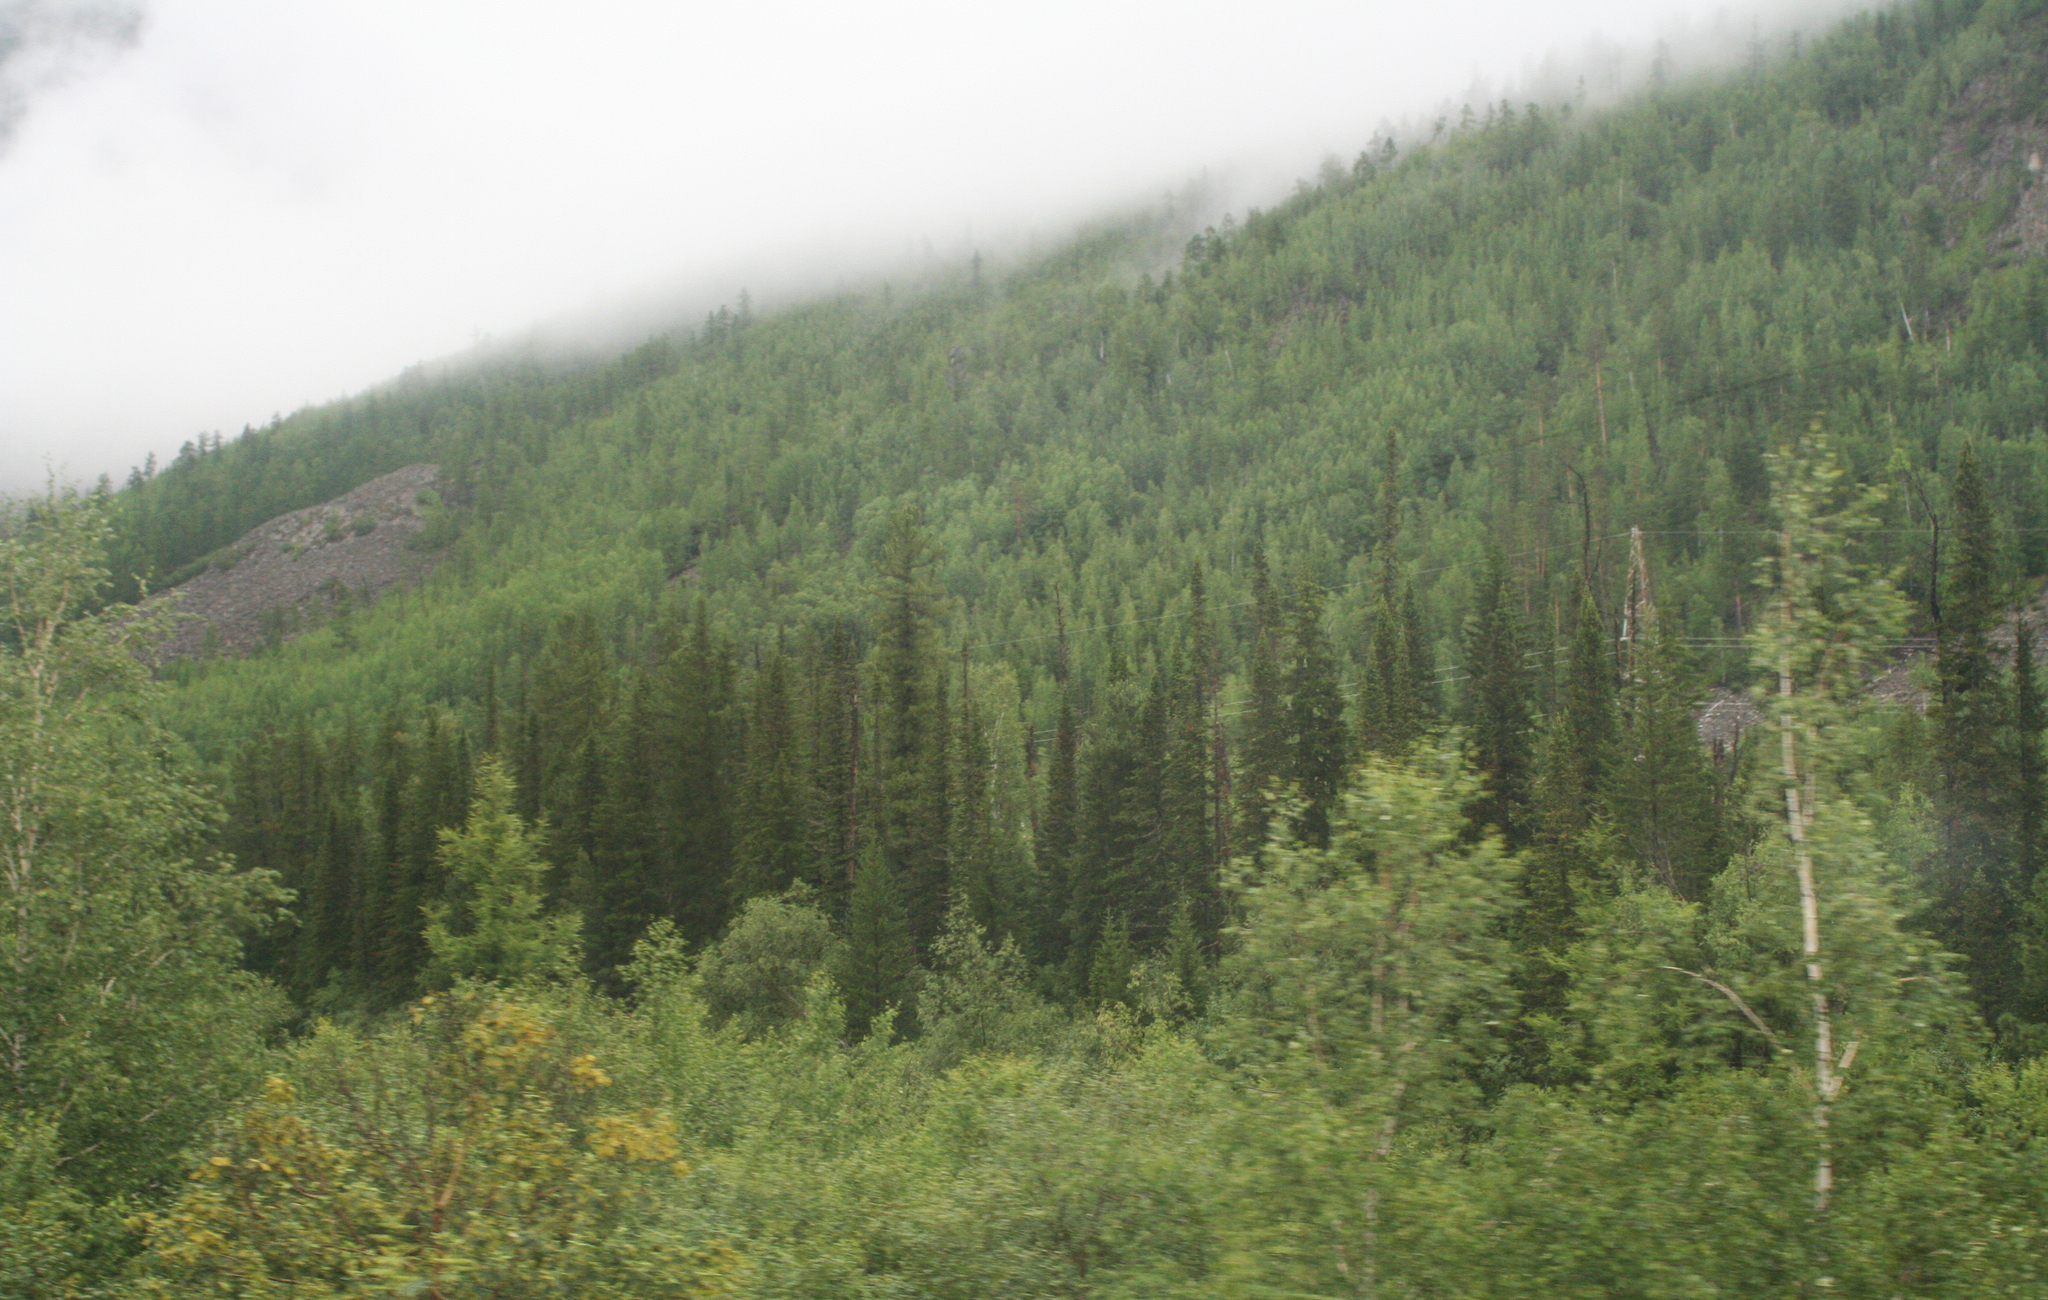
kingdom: Plantae
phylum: Tracheophyta
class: Pinopsida
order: Pinales
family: Pinaceae
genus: Picea
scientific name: Picea obovata
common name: Siberian spruce
